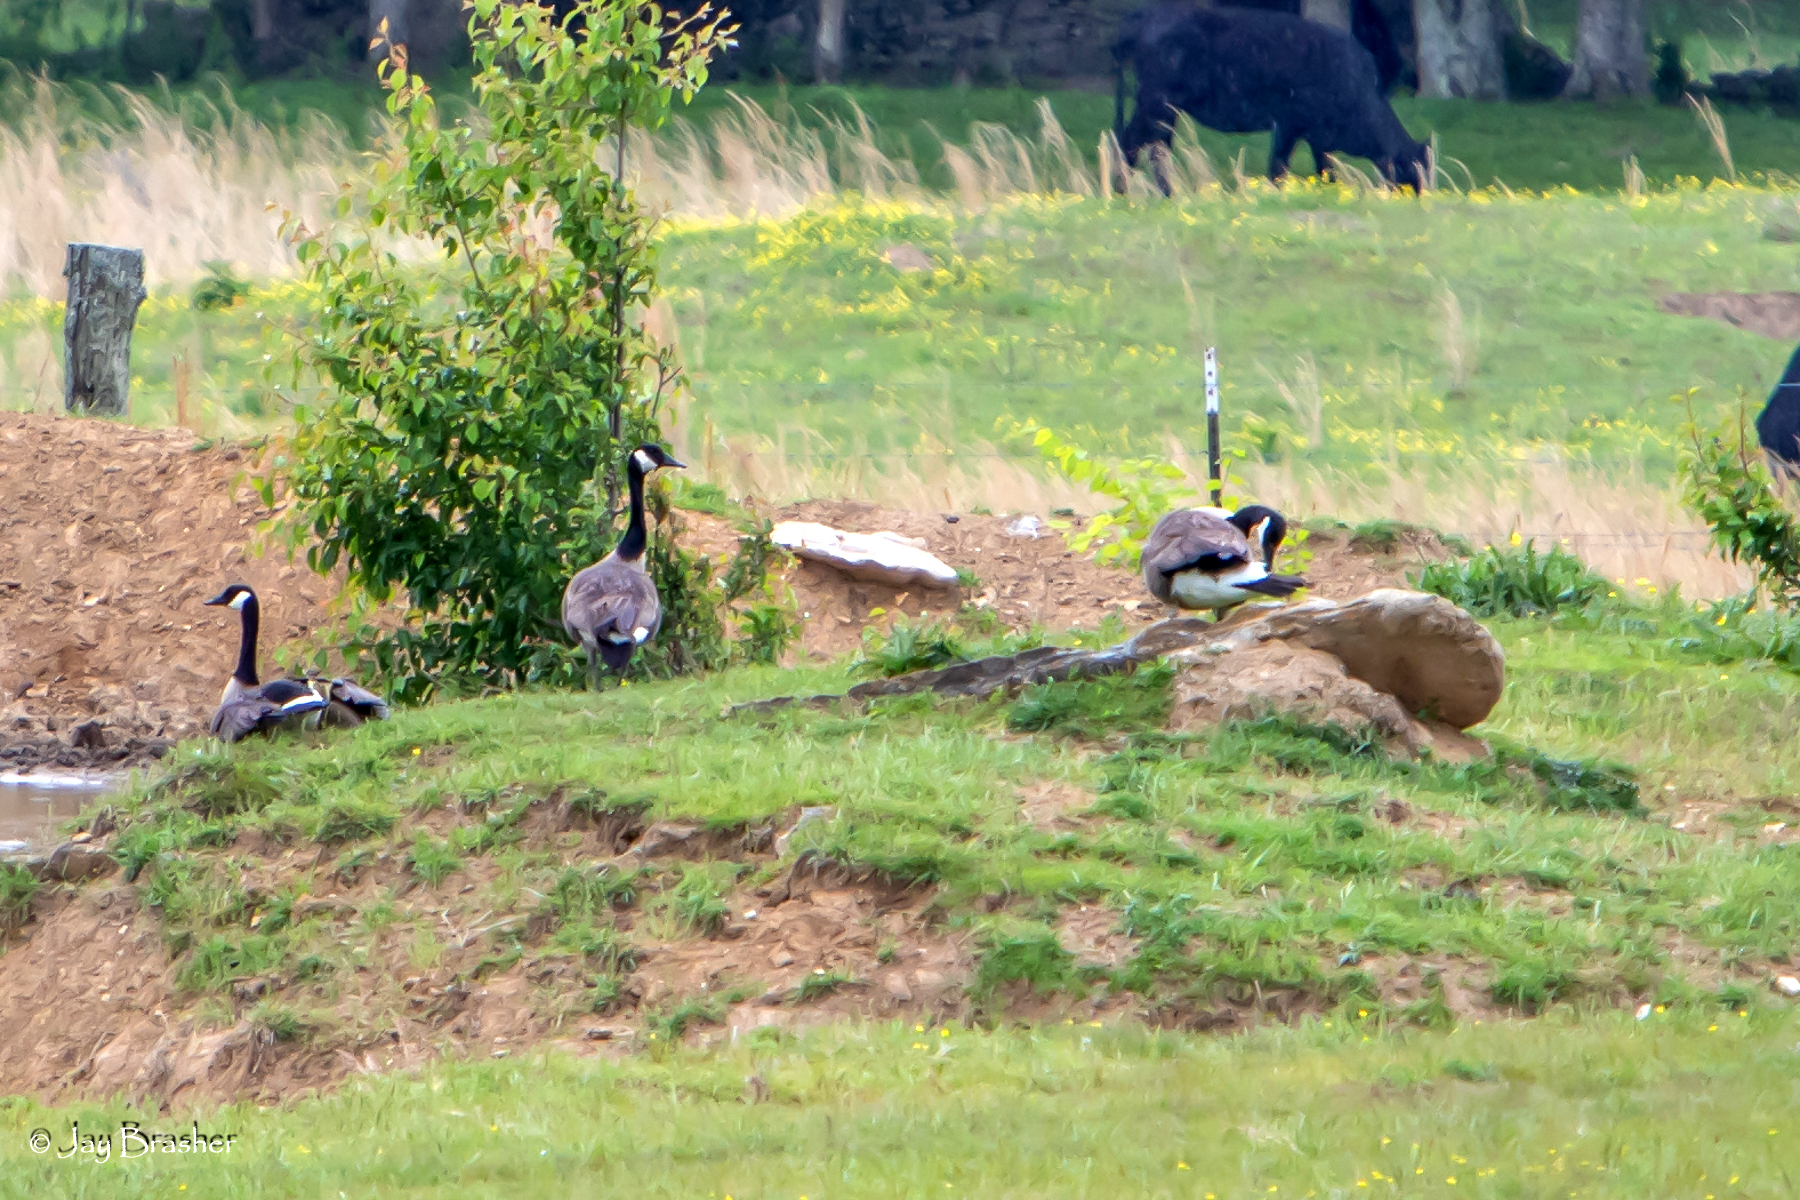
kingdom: Animalia
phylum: Chordata
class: Aves
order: Anseriformes
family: Anatidae
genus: Branta
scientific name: Branta canadensis
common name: Canada goose
